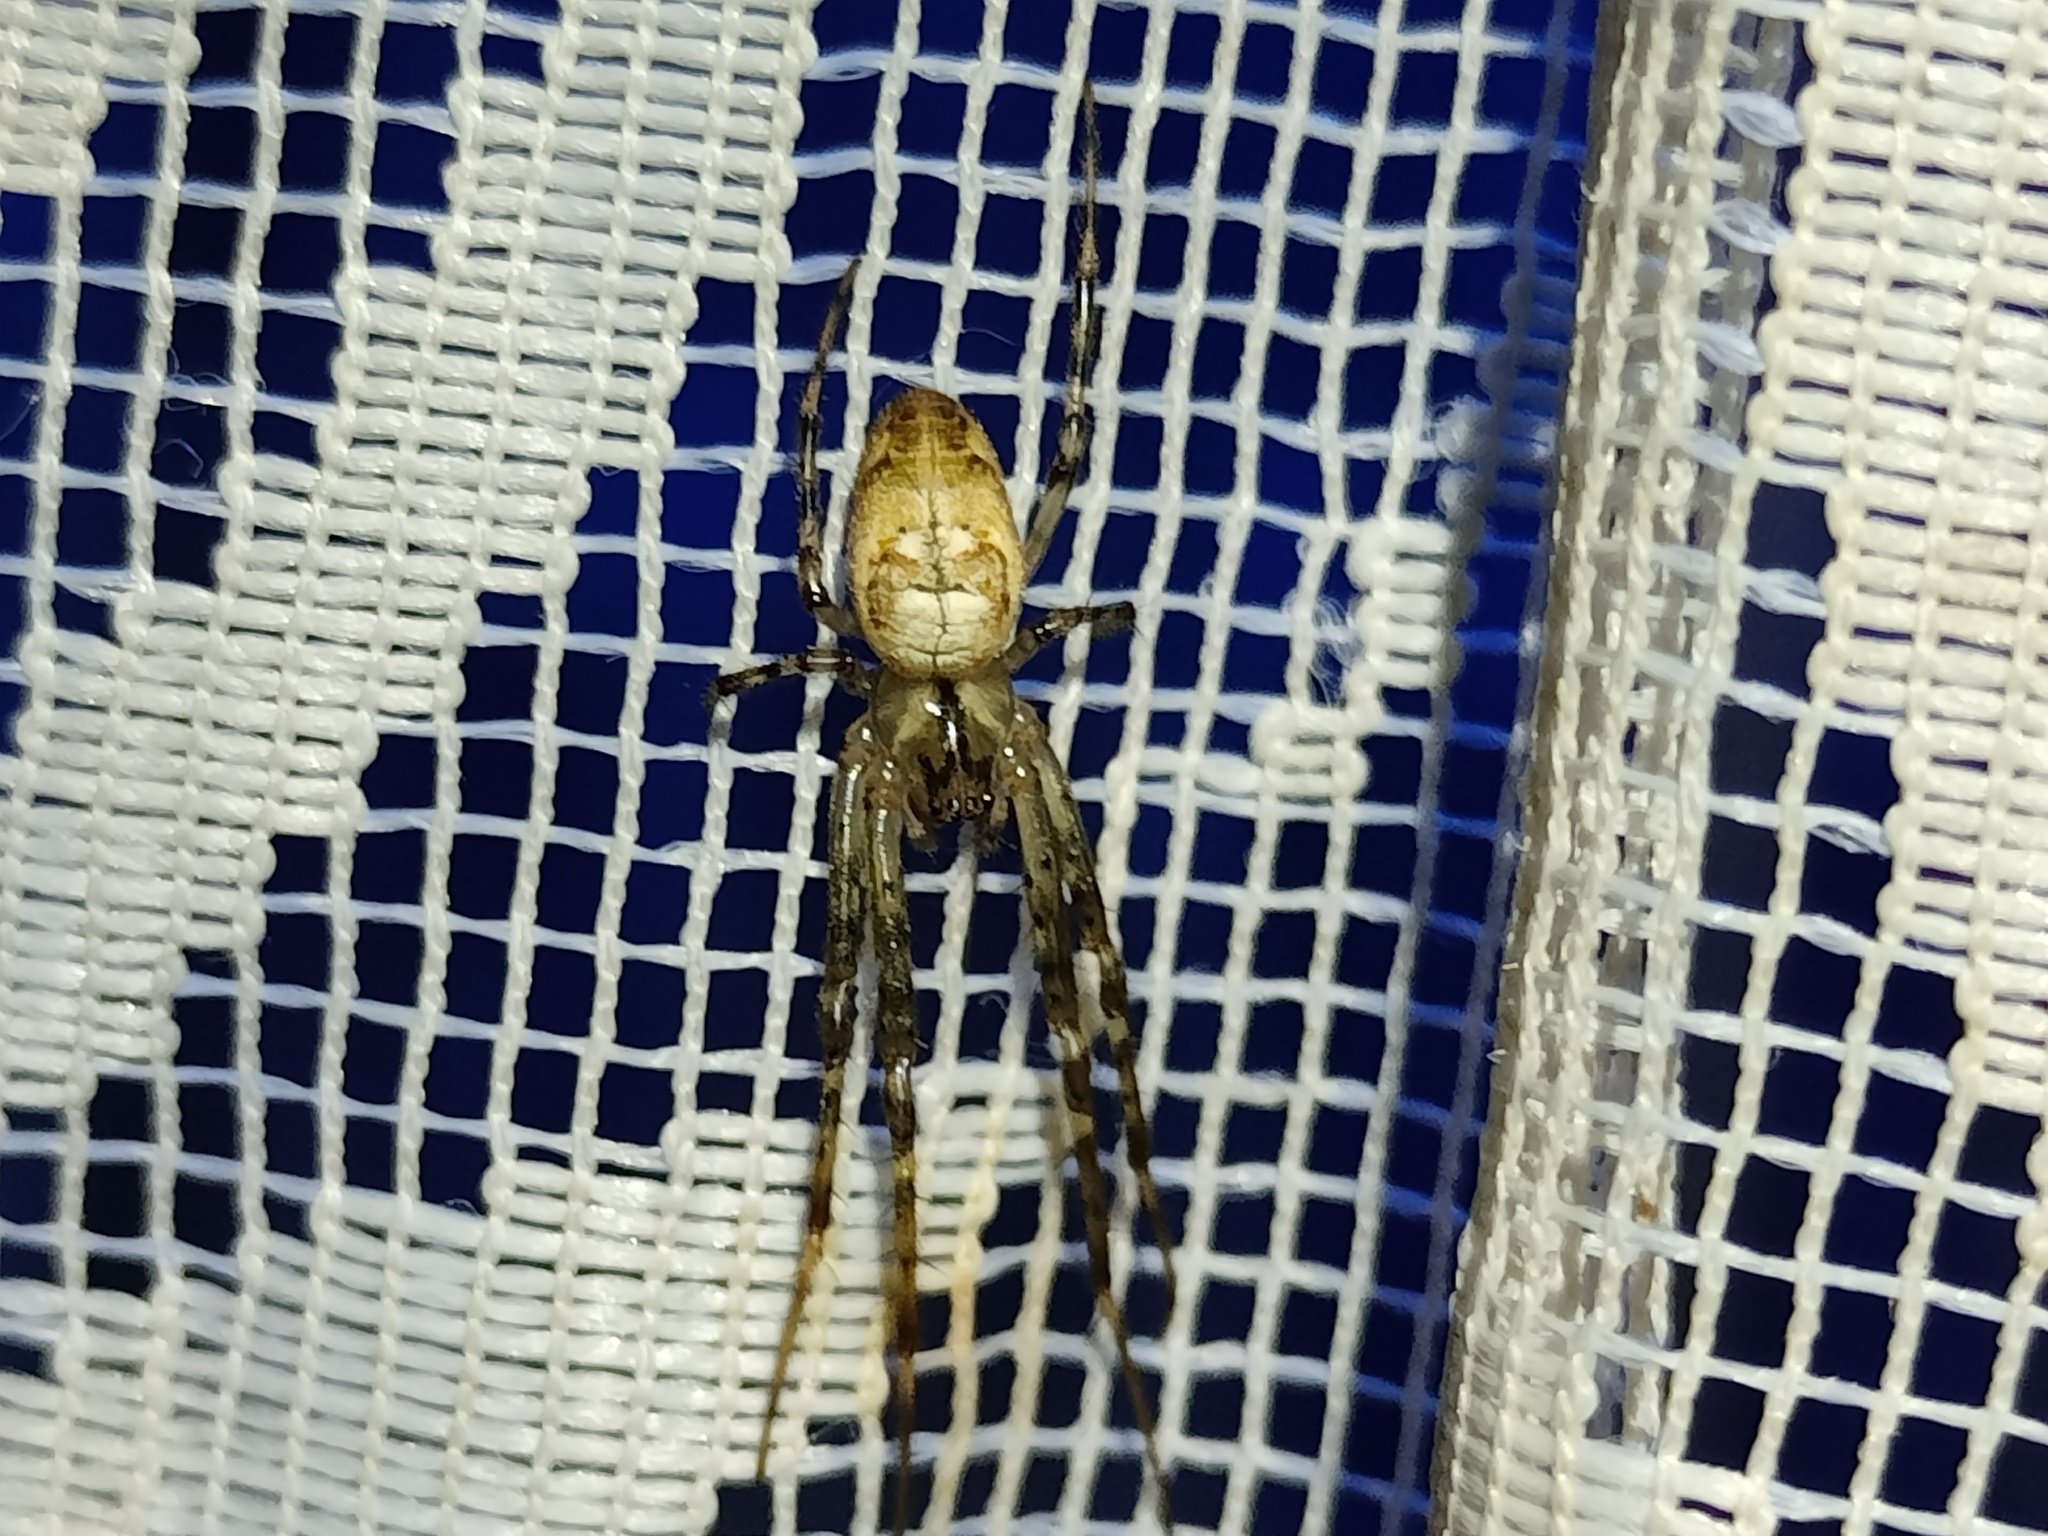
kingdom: Animalia
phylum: Arthropoda
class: Arachnida
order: Araneae
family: Tetragnathidae
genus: Metellina
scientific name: Metellina segmentata
